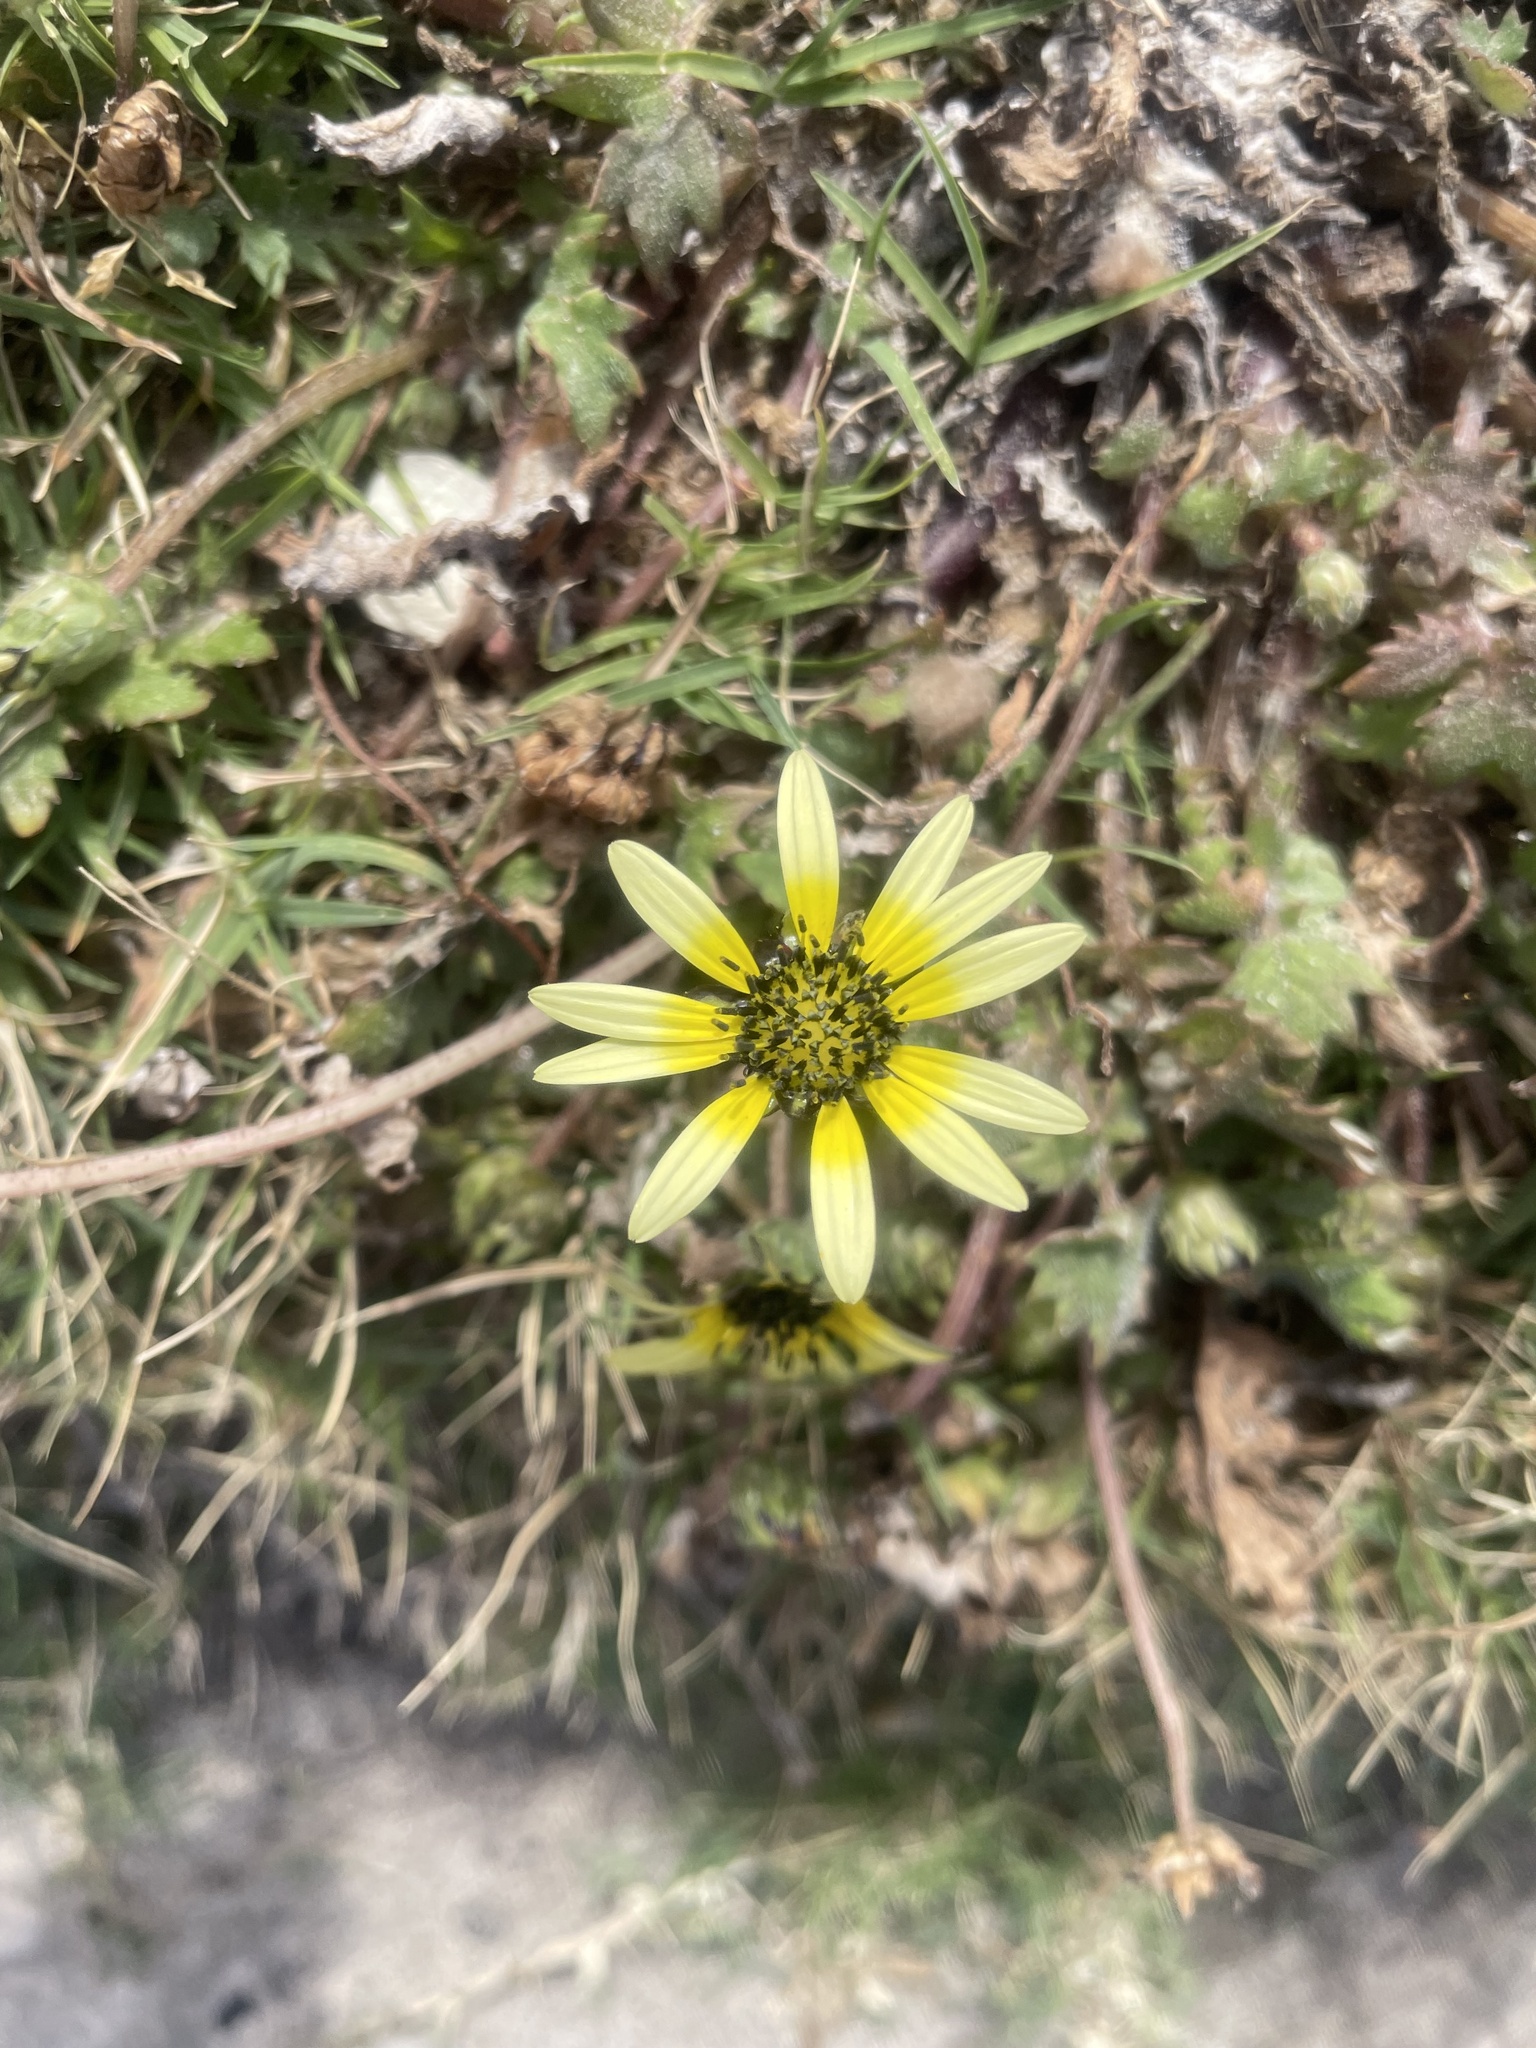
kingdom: Plantae
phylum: Tracheophyta
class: Magnoliopsida
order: Asterales
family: Asteraceae
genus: Arctotheca
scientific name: Arctotheca calendula
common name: Capeweed
